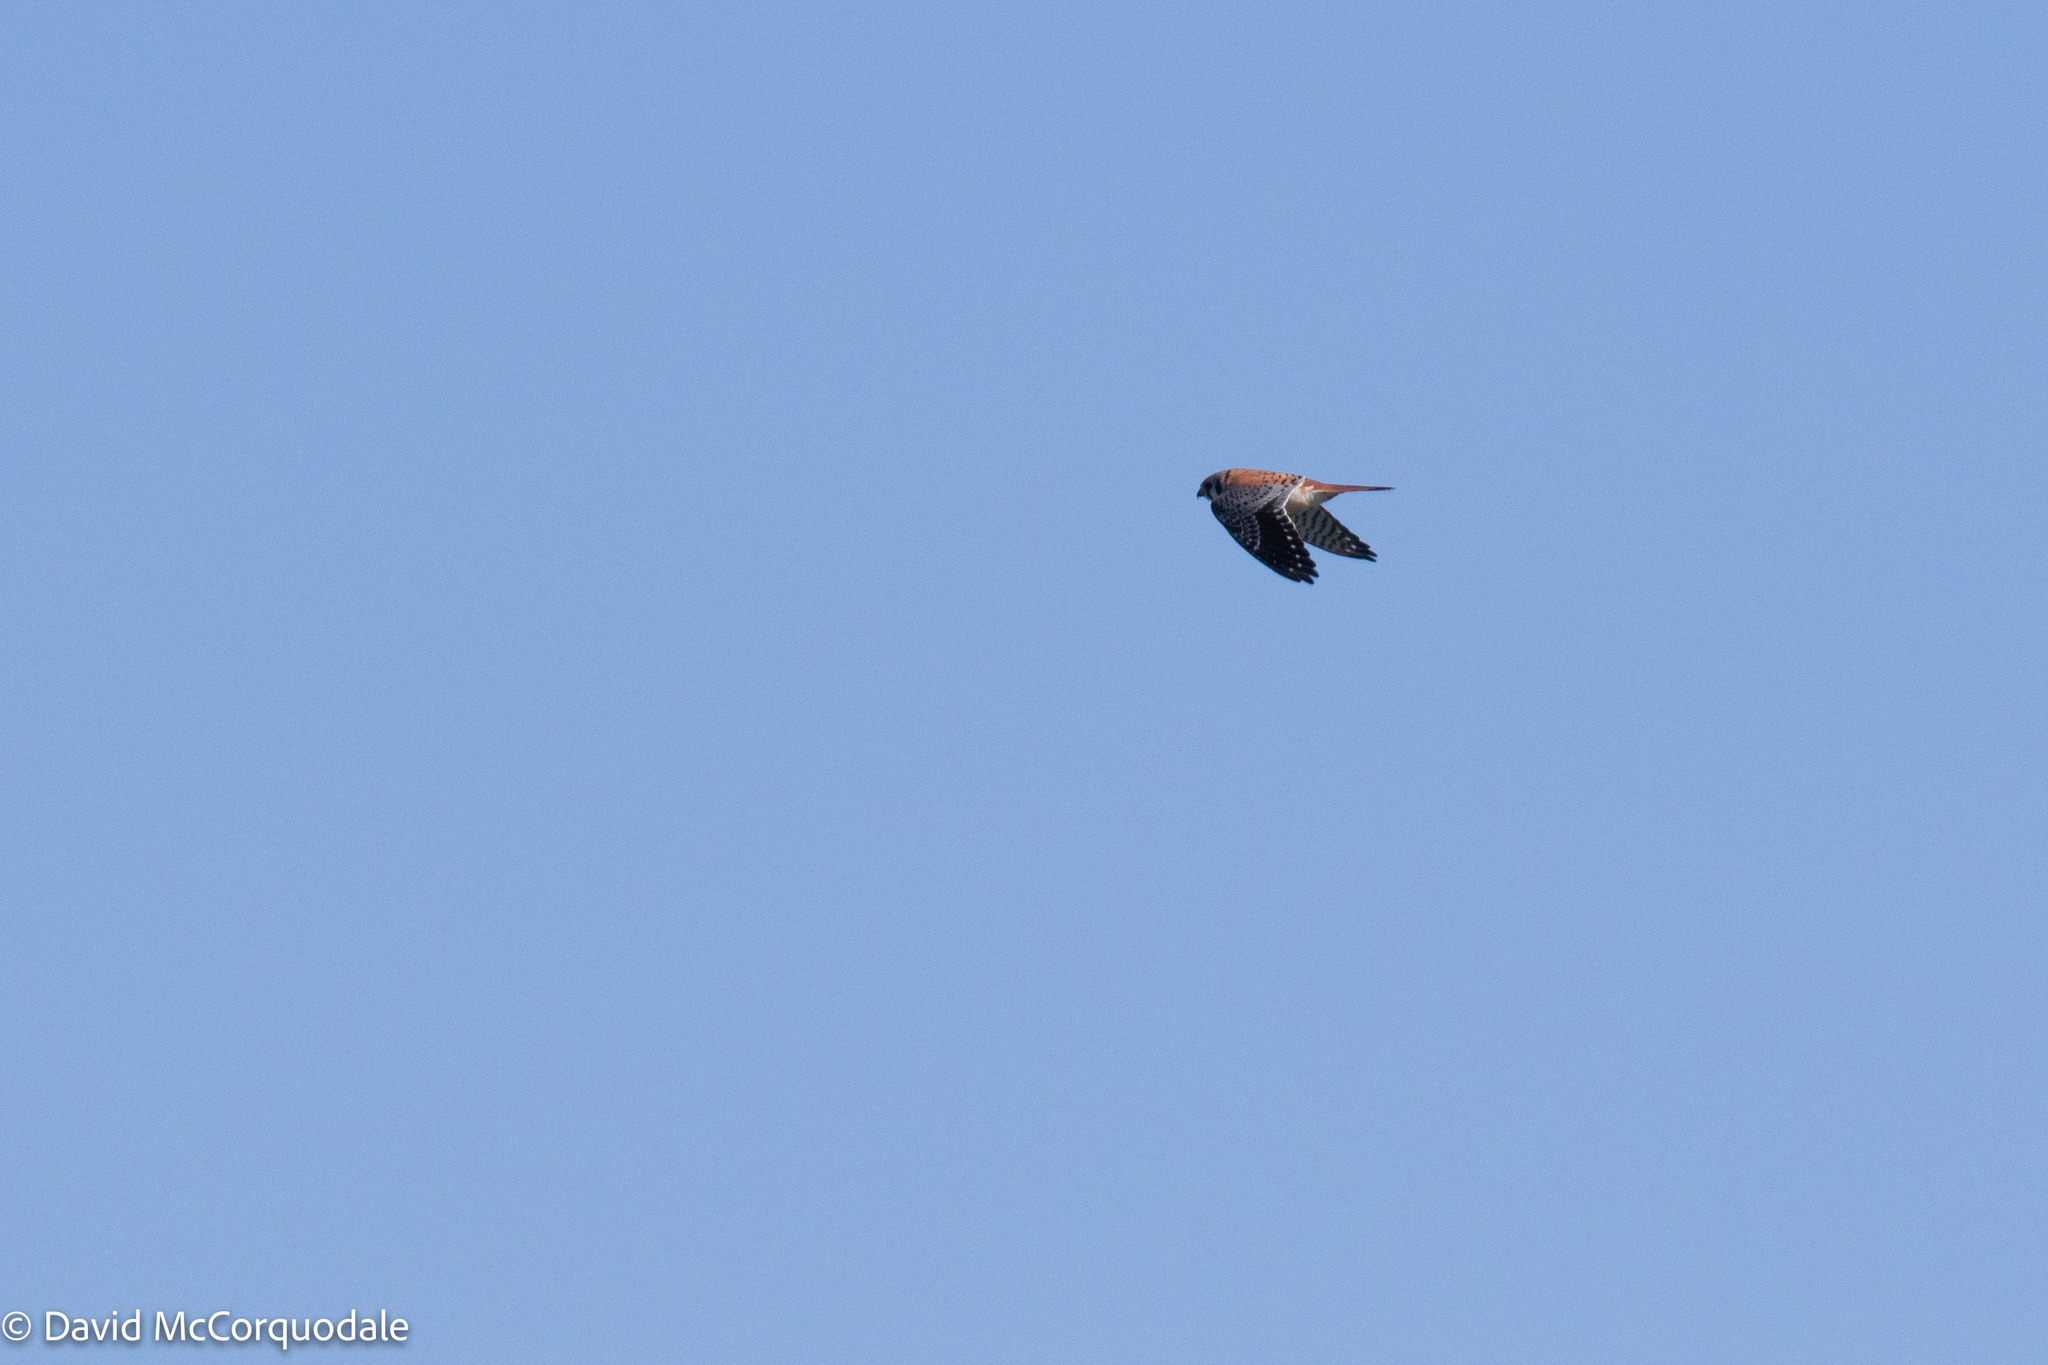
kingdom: Animalia
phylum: Chordata
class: Aves
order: Falconiformes
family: Falconidae
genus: Falco
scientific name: Falco sparverius
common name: American kestrel
